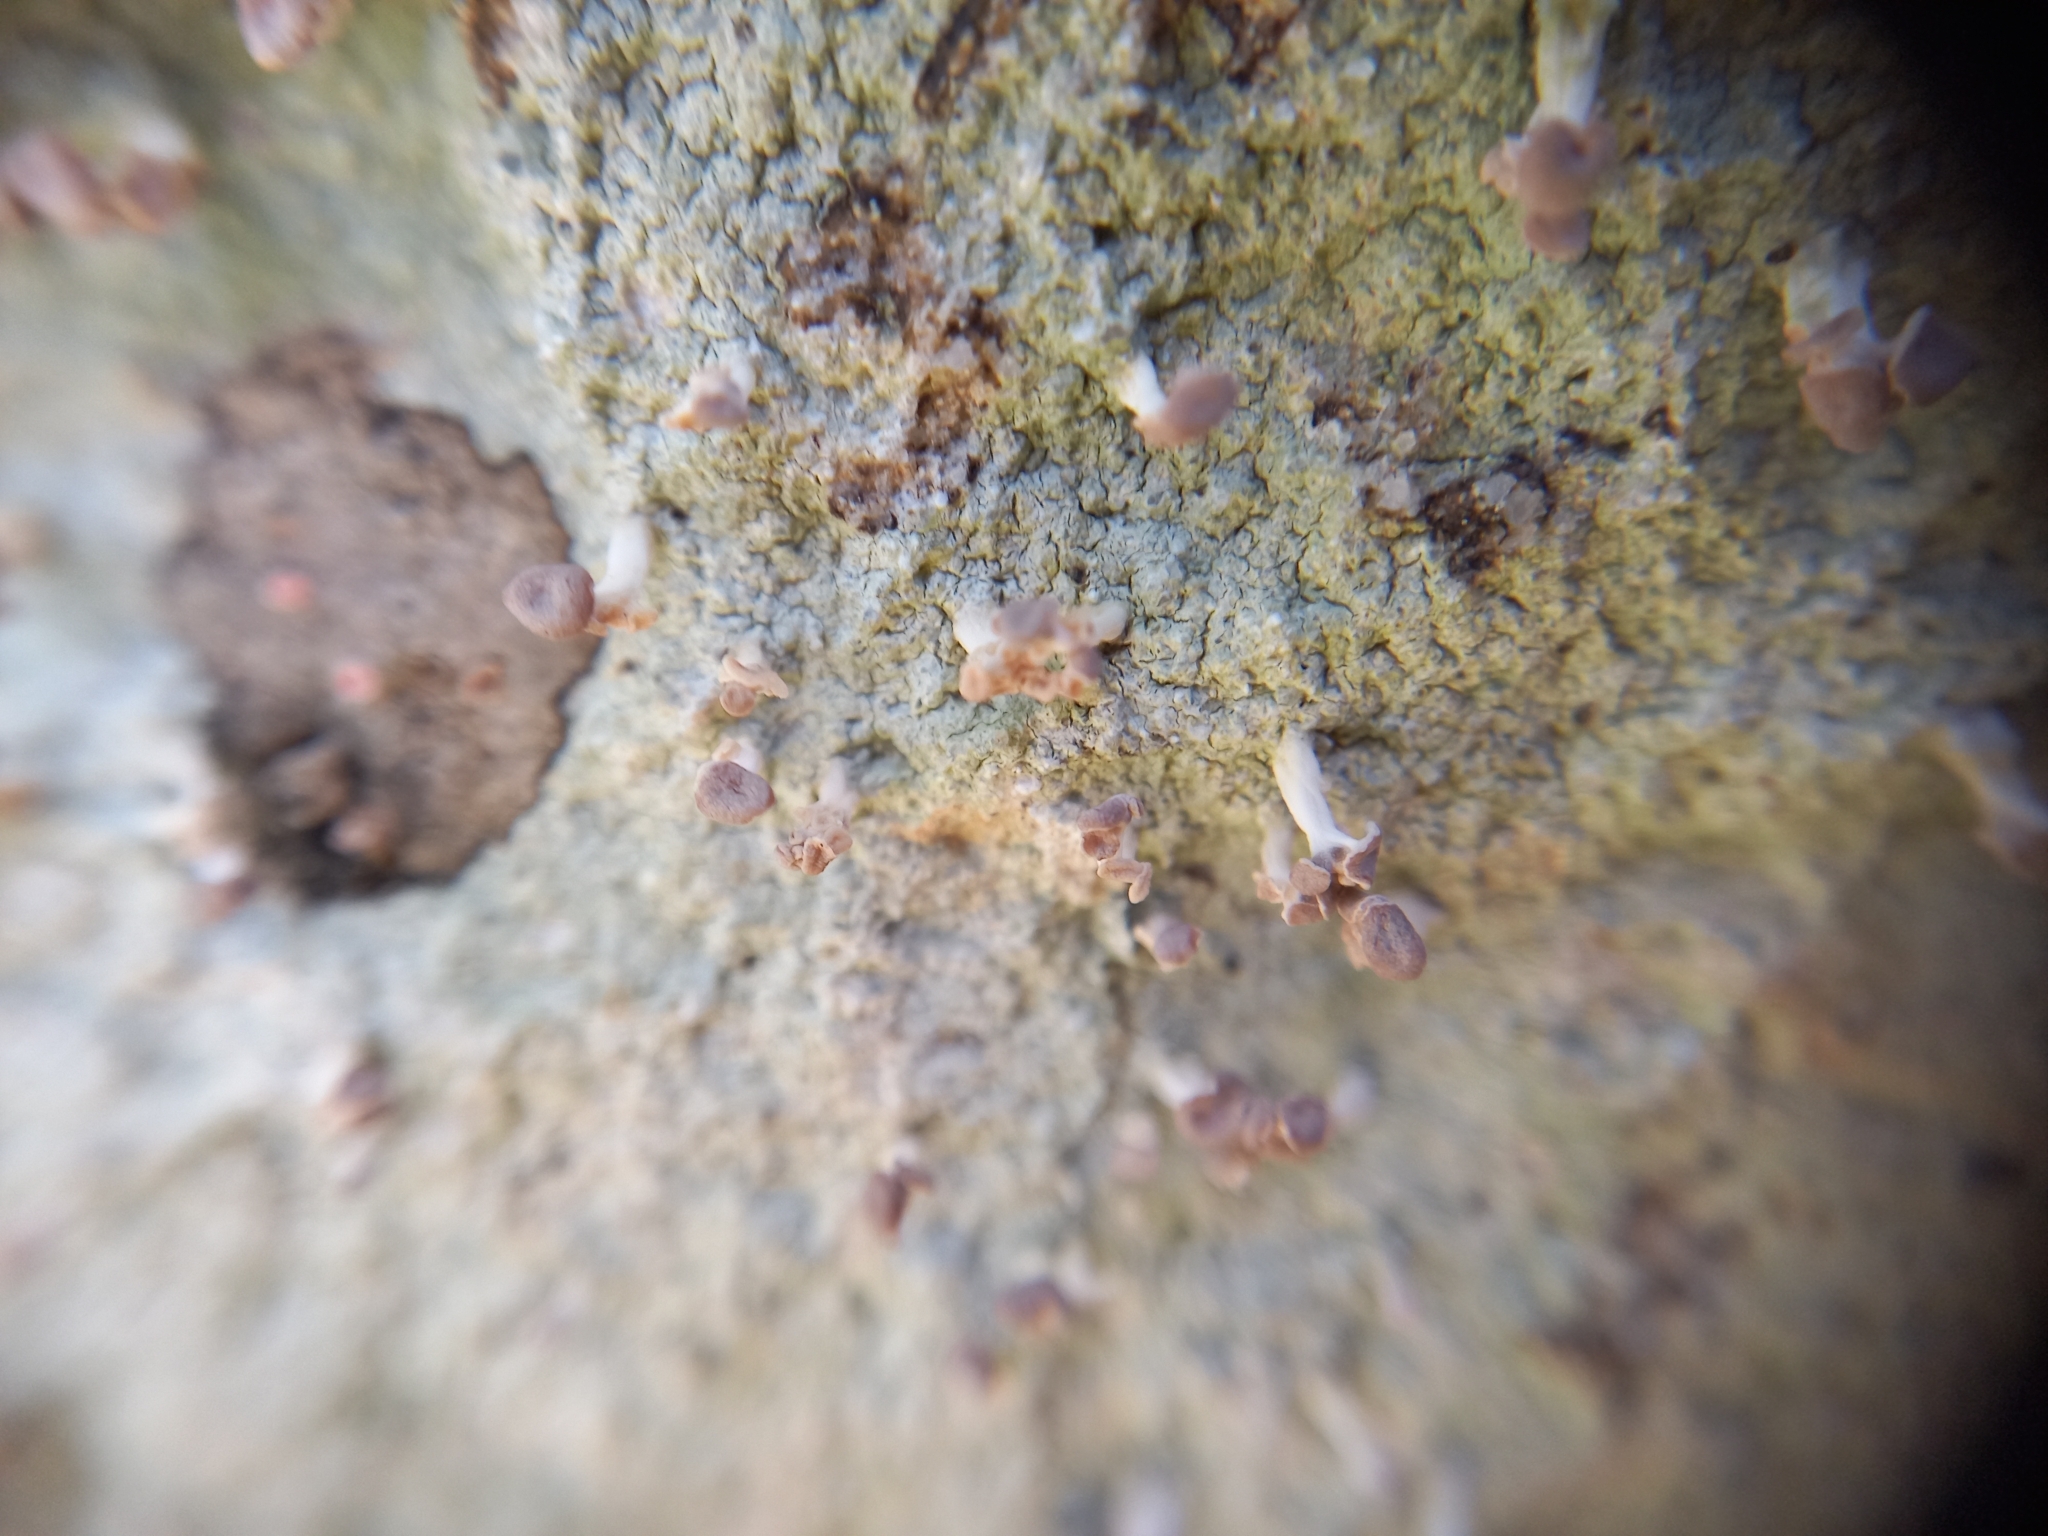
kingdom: Fungi
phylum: Ascomycota
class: Lecanoromycetes
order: Baeomycetales
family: Baeomycetaceae
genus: Baeomyces
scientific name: Baeomyces heteromorphus
